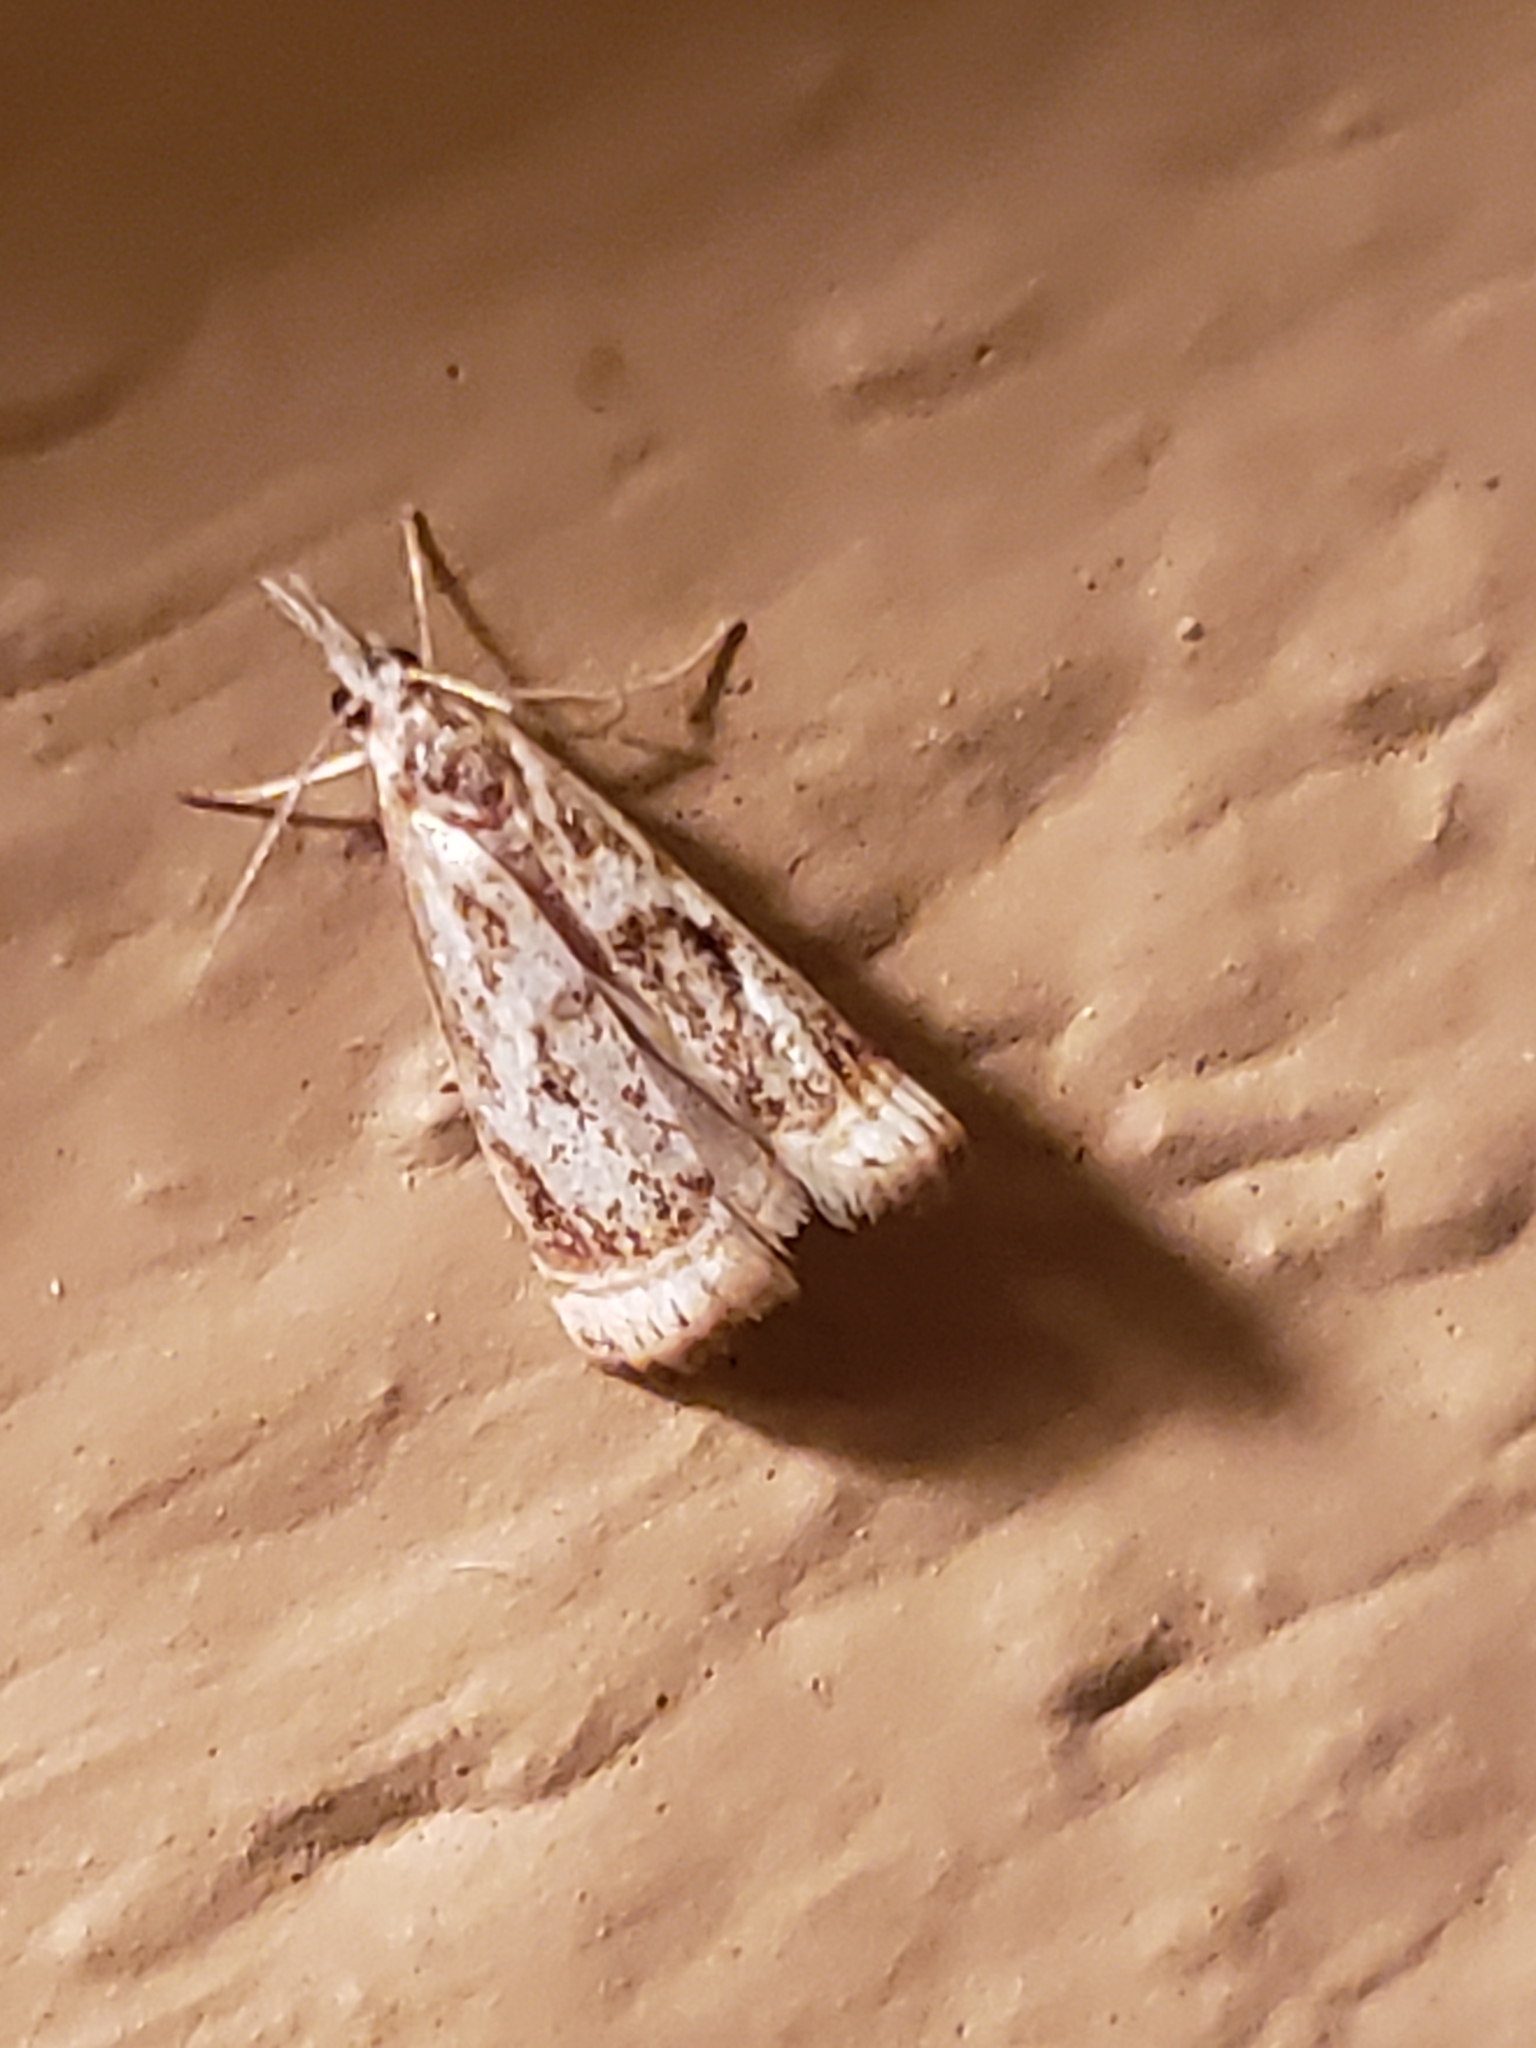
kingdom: Animalia
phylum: Arthropoda
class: Insecta
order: Lepidoptera
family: Crambidae
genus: Microcrambus
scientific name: Microcrambus elegans
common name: Elegant grass-veneer
